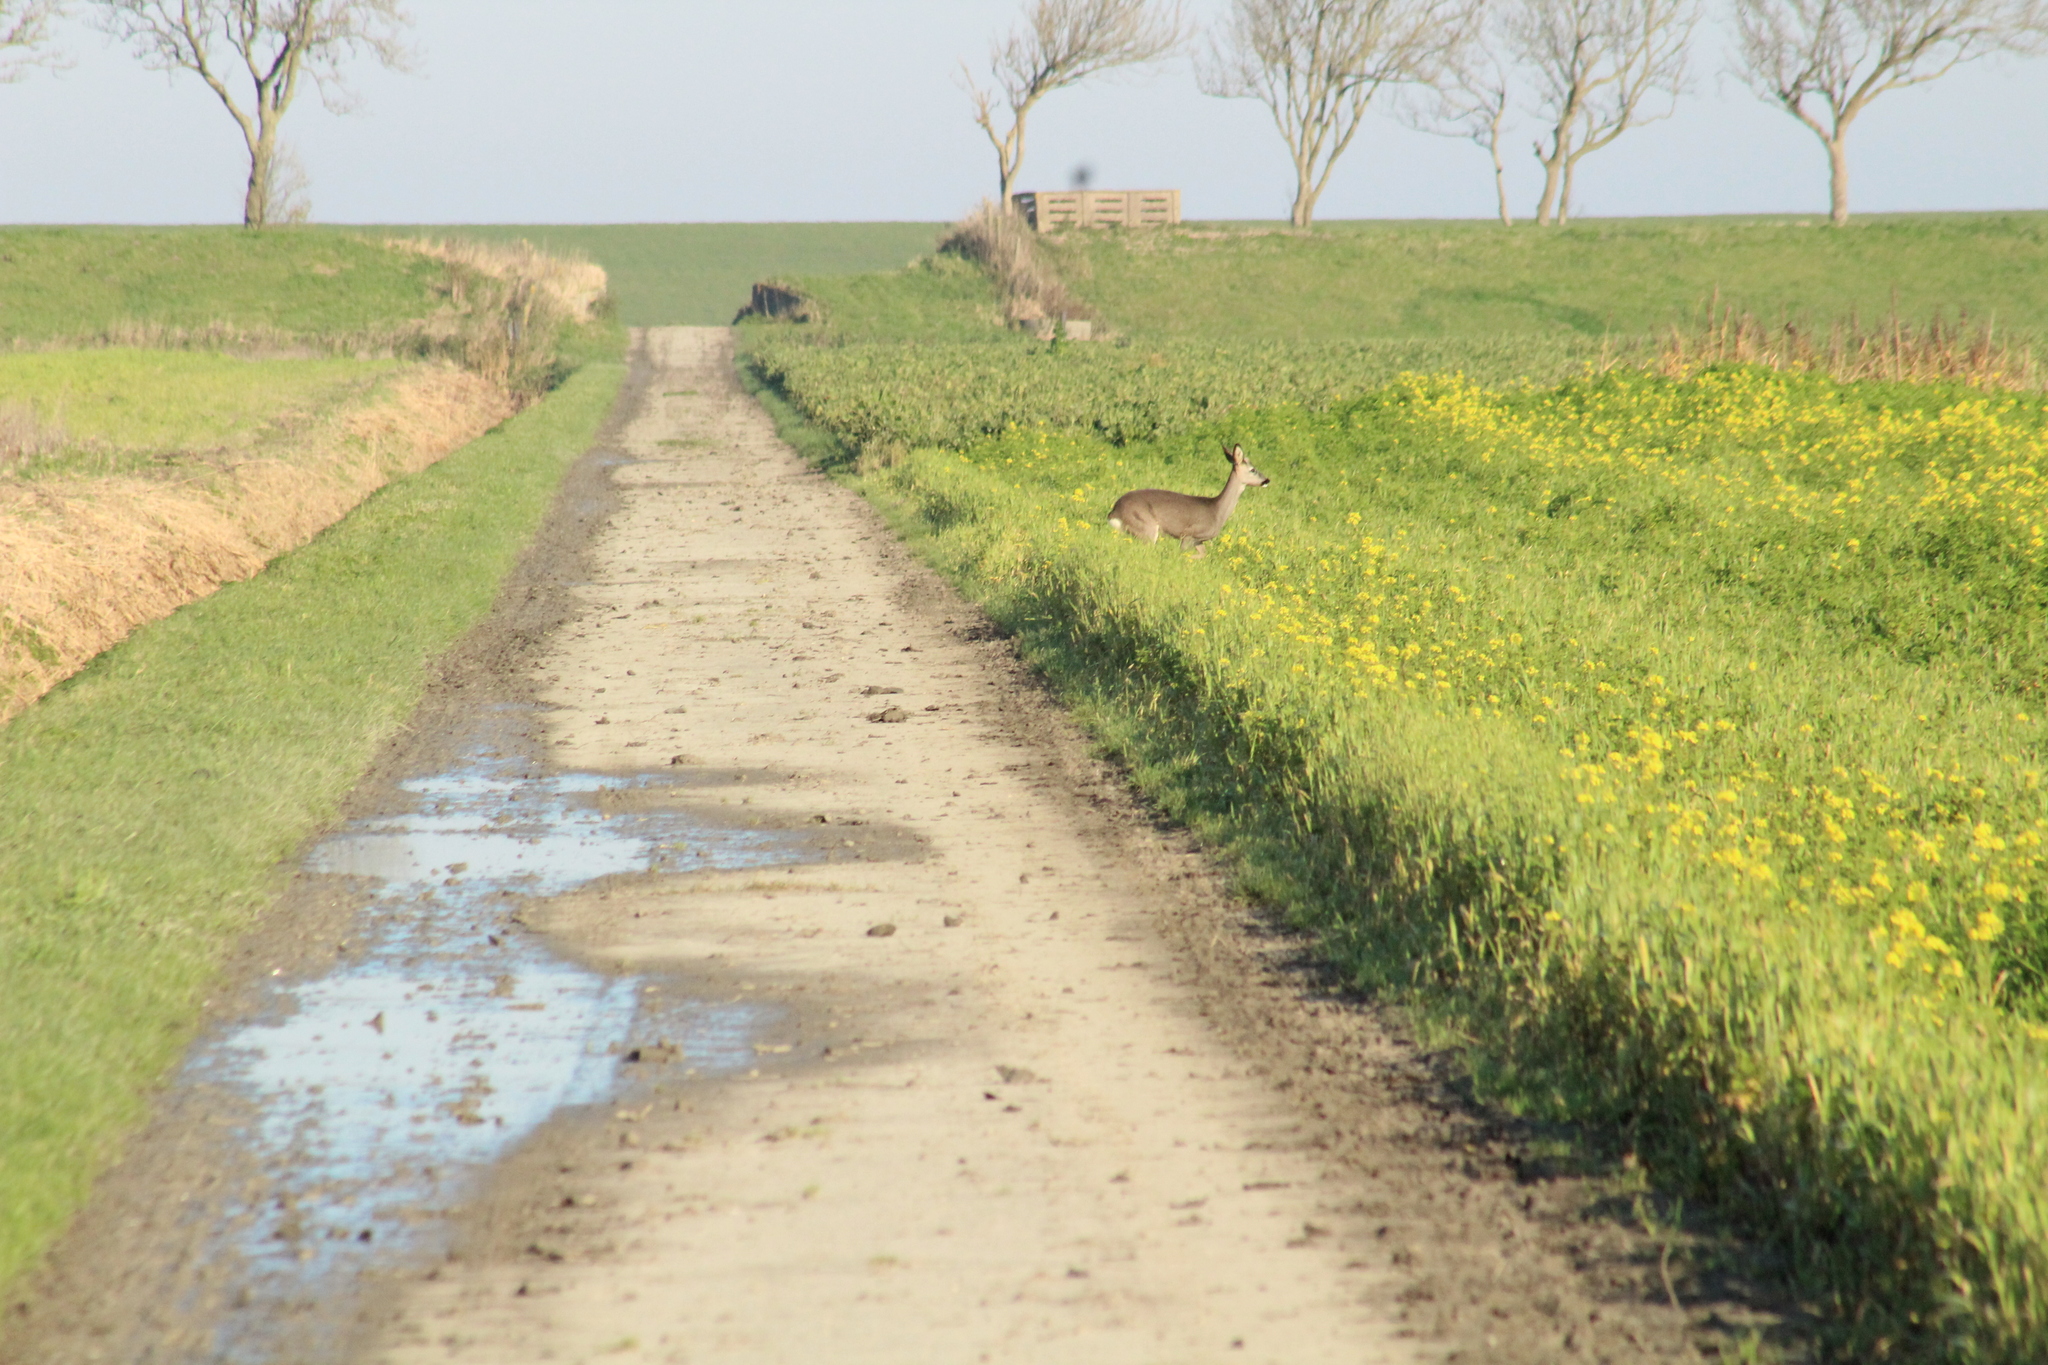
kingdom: Animalia
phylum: Chordata
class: Mammalia
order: Artiodactyla
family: Cervidae
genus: Capreolus
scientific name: Capreolus capreolus
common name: Western roe deer
